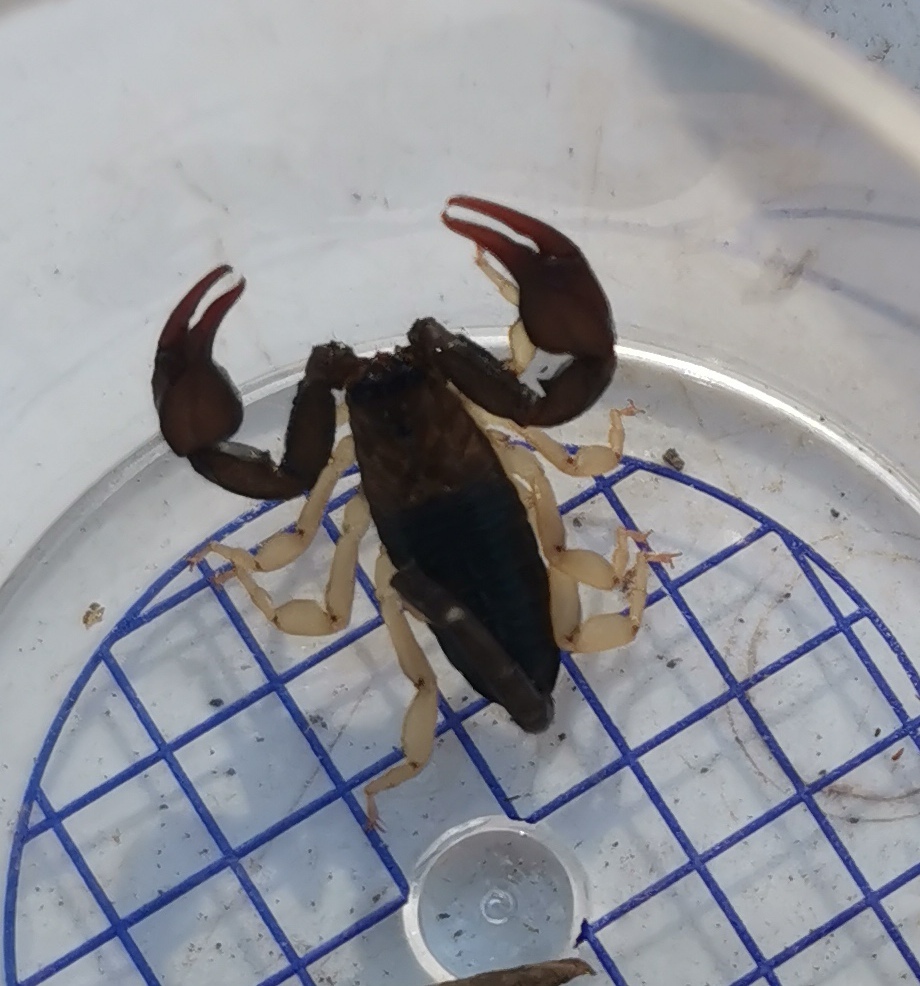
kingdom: Animalia
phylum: Arthropoda
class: Arachnida
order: Scorpiones
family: Euscorpiidae
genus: Euscorpius
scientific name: Euscorpius flavicaudis
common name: European yellow-tailed scorpion
